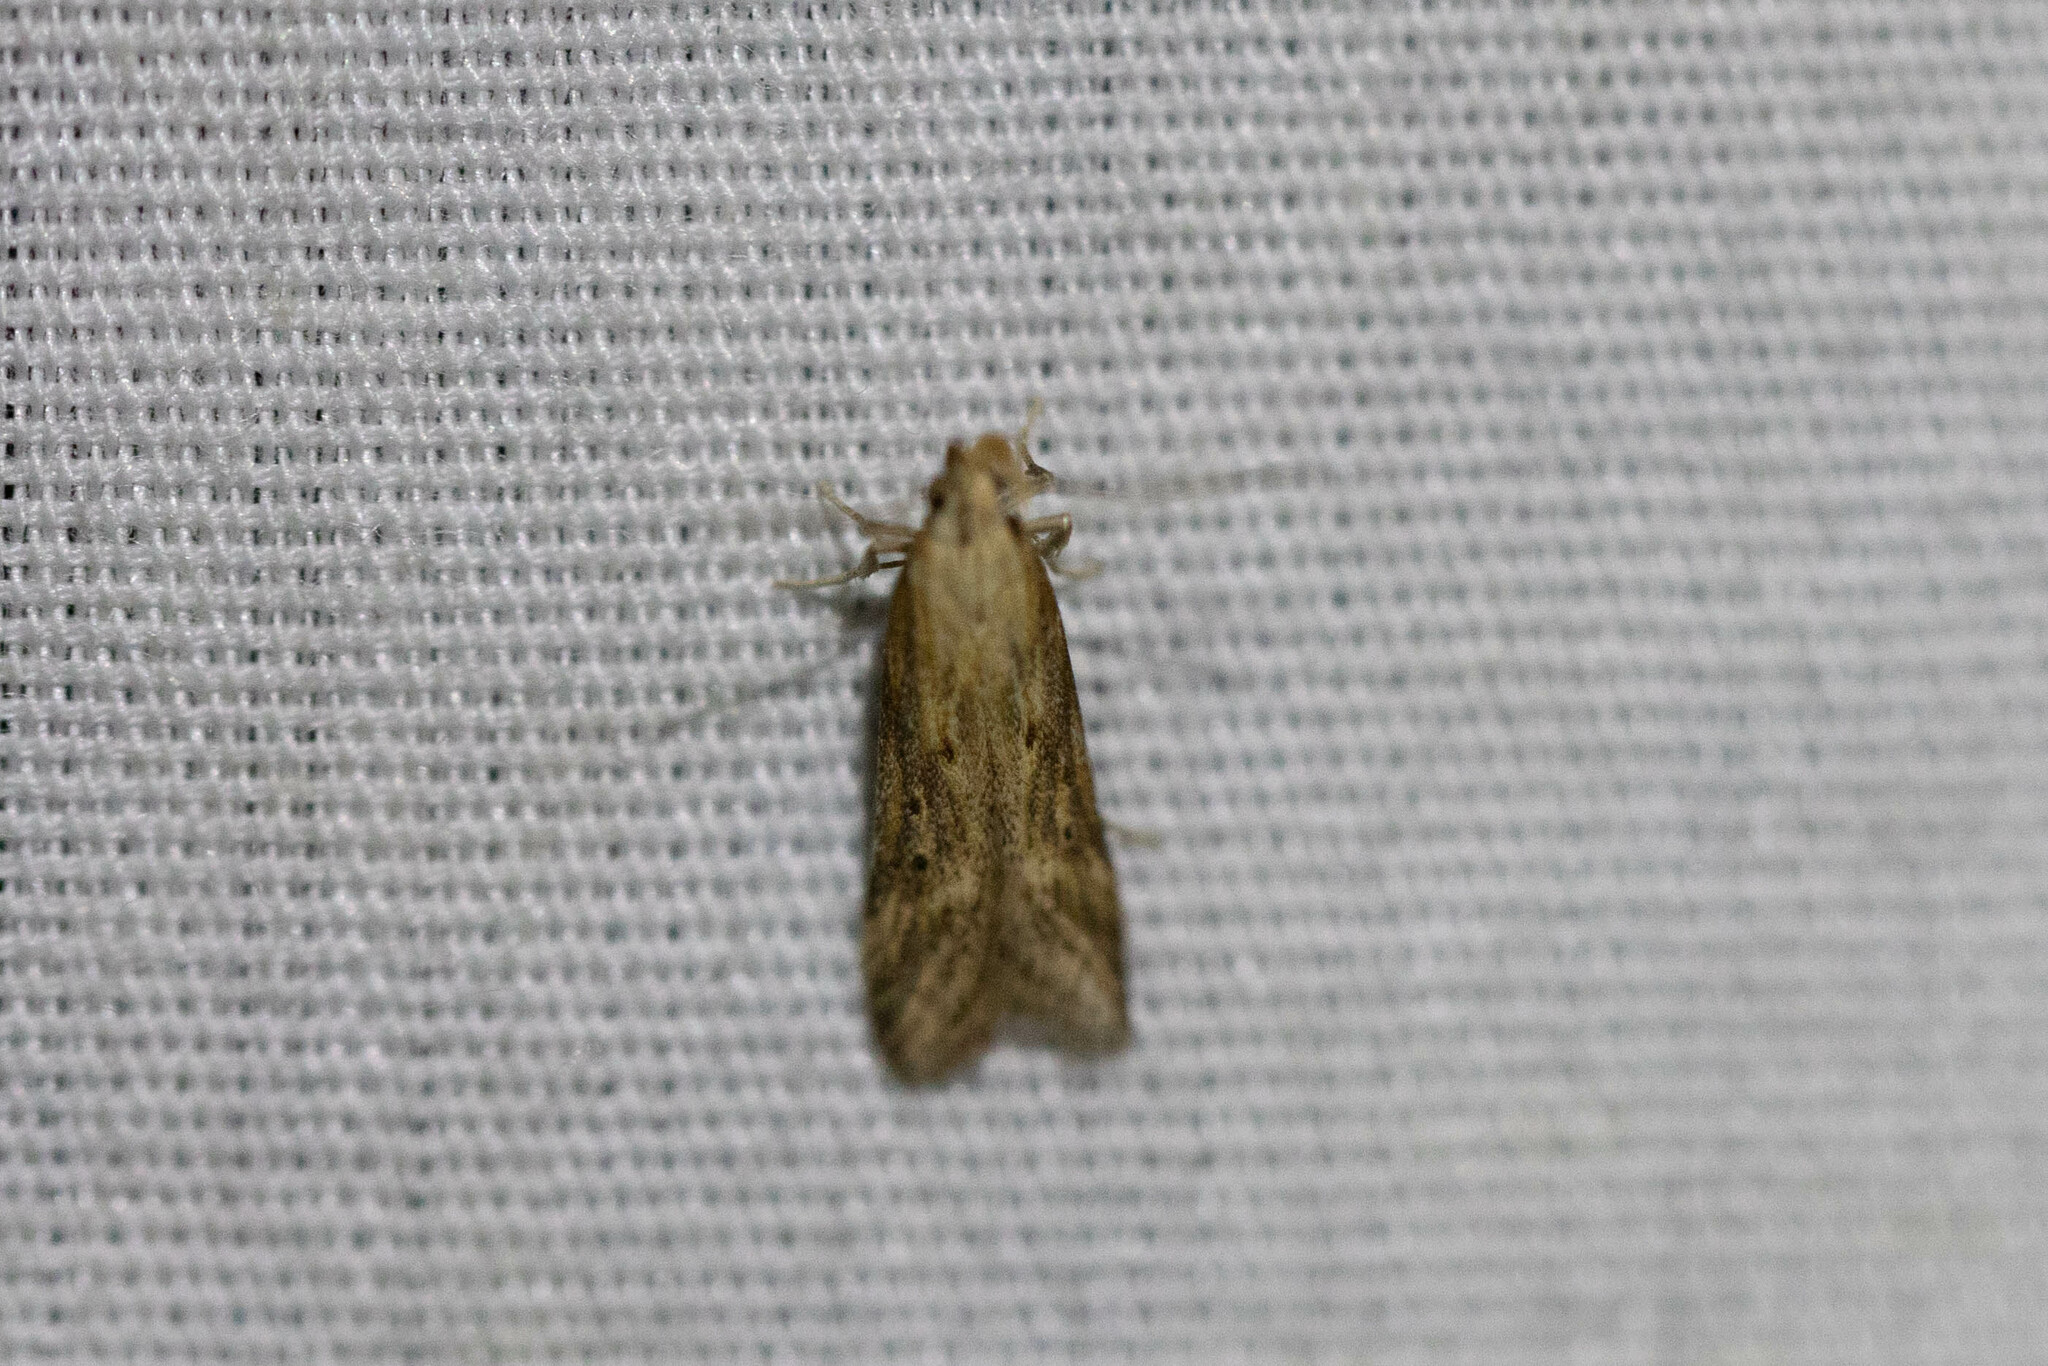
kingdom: Animalia
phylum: Arthropoda
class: Insecta
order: Lepidoptera
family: Gelechiidae
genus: Metzneria
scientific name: Metzneria lappella
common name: Burdock neb
